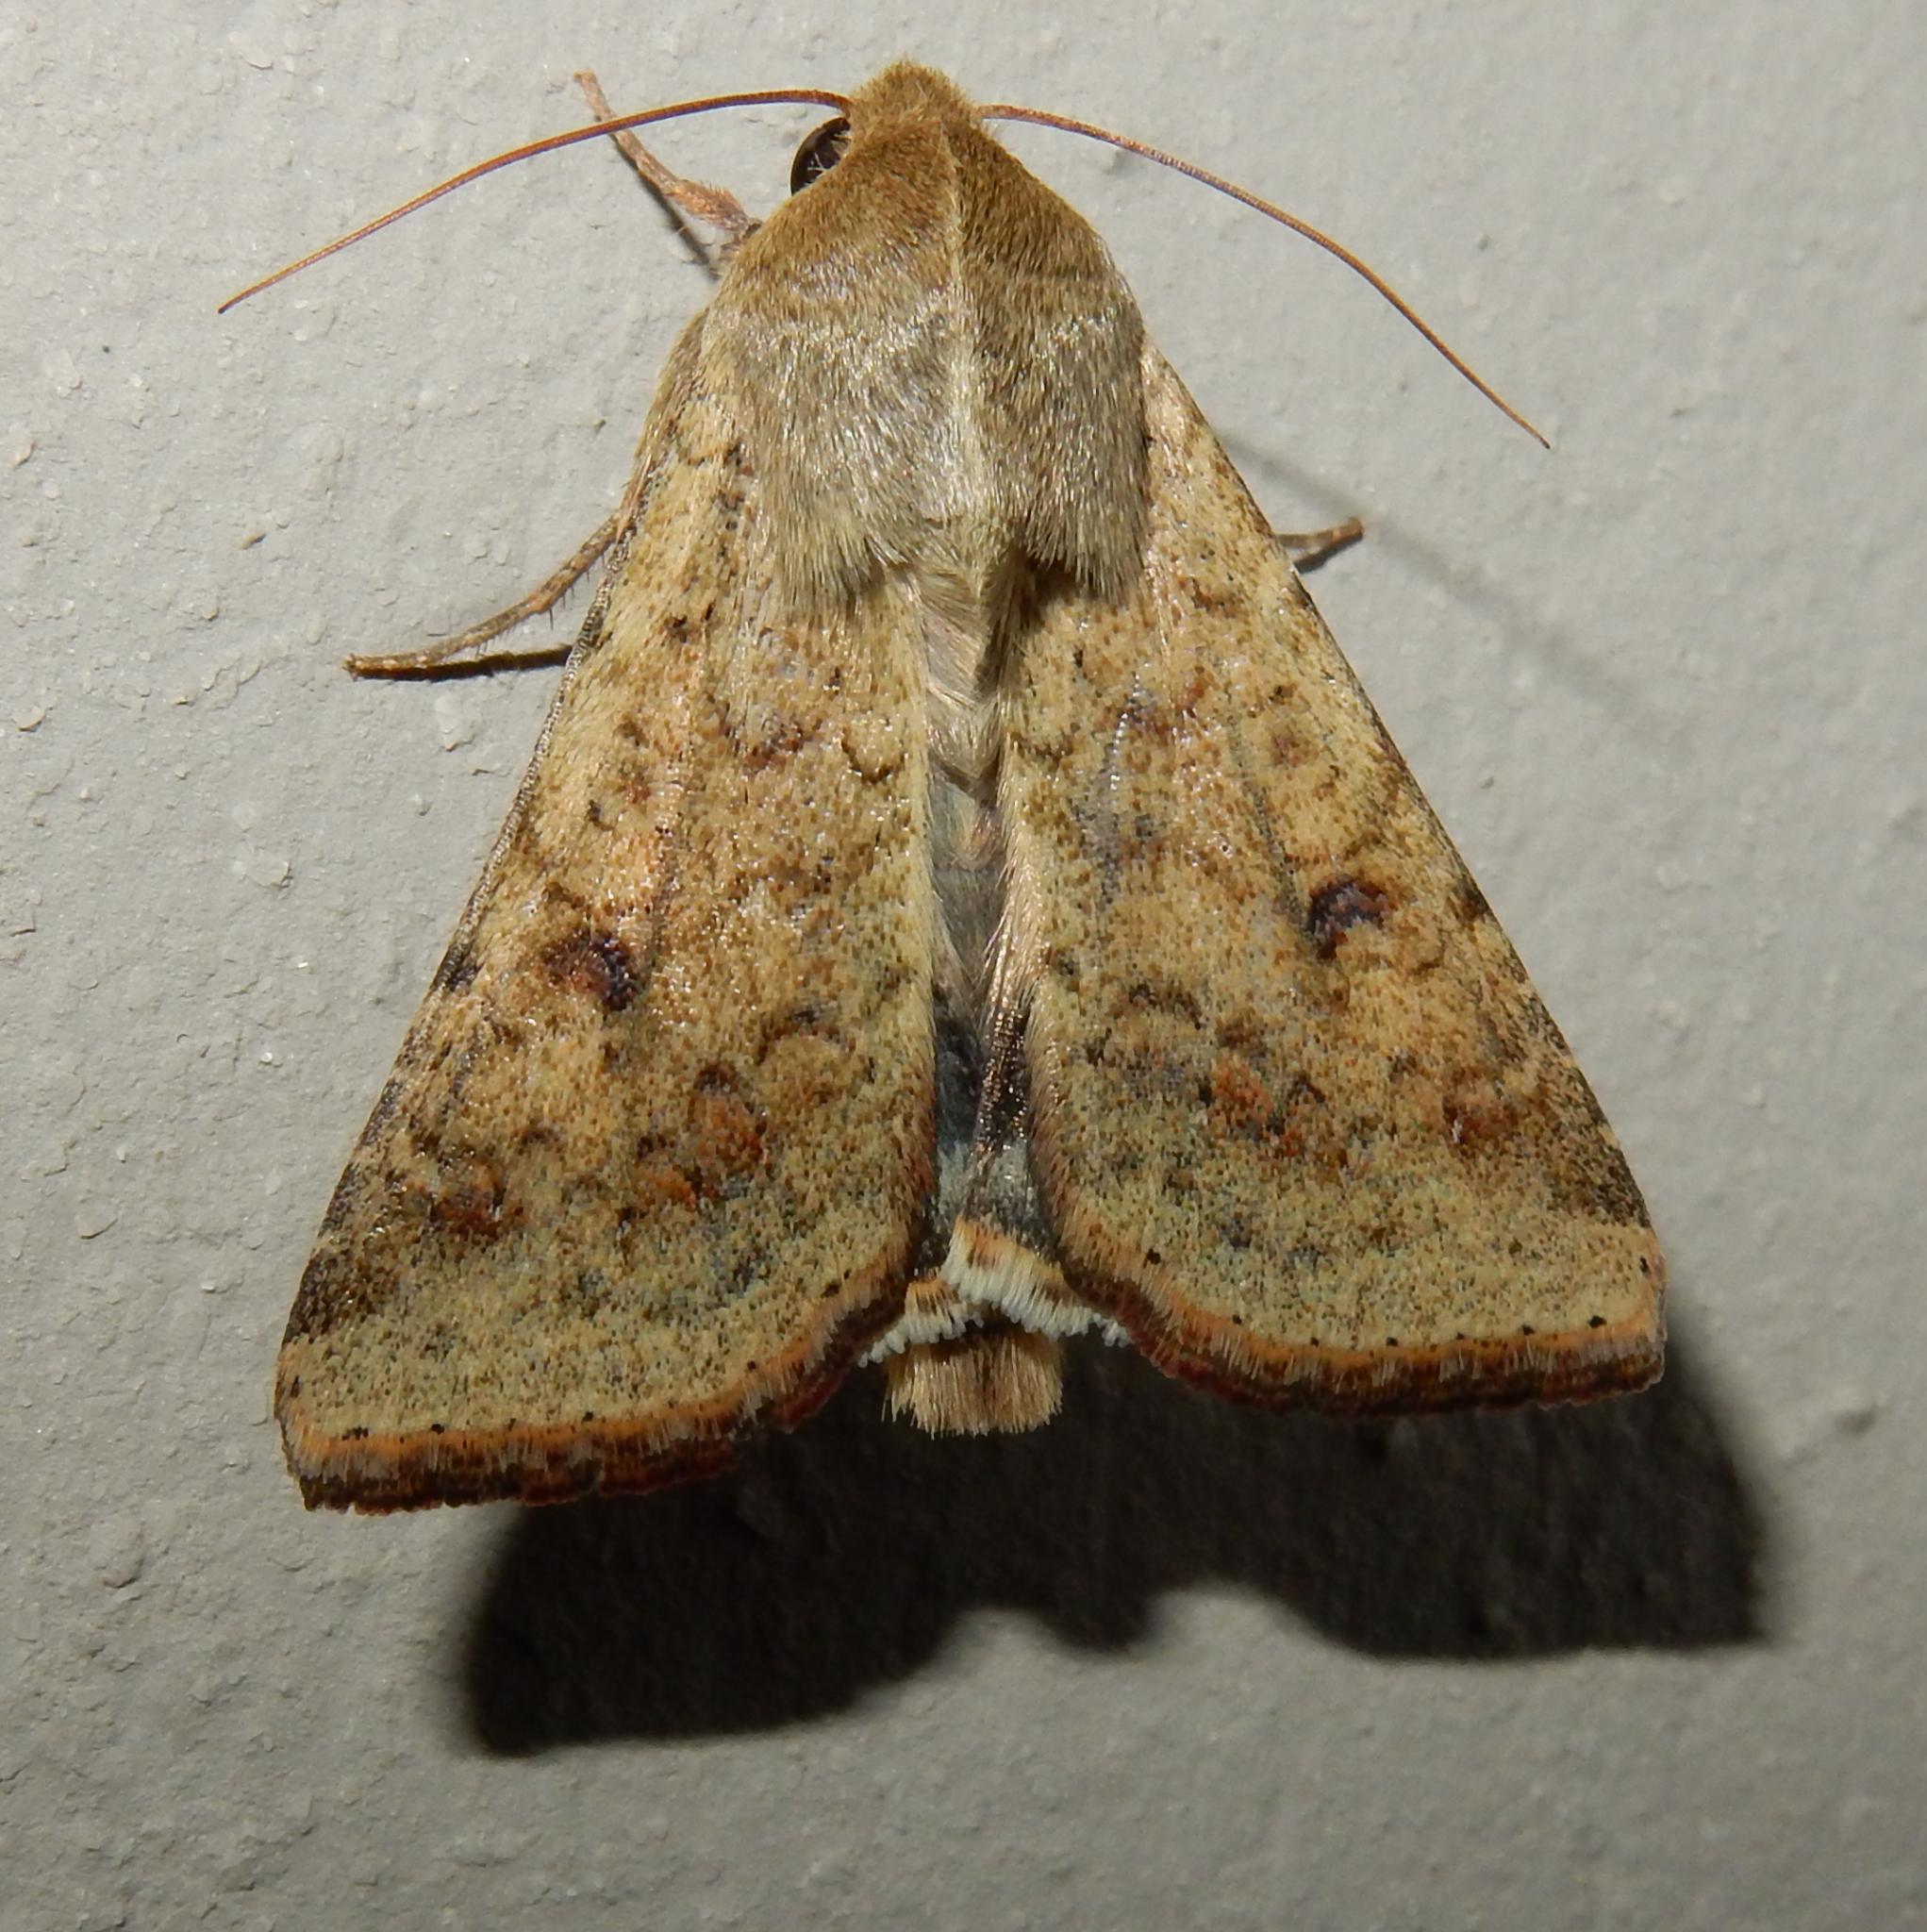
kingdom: Animalia
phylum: Arthropoda
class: Insecta
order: Lepidoptera
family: Noctuidae
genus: Helicoverpa
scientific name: Helicoverpa armigera
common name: Cotton bollworm
